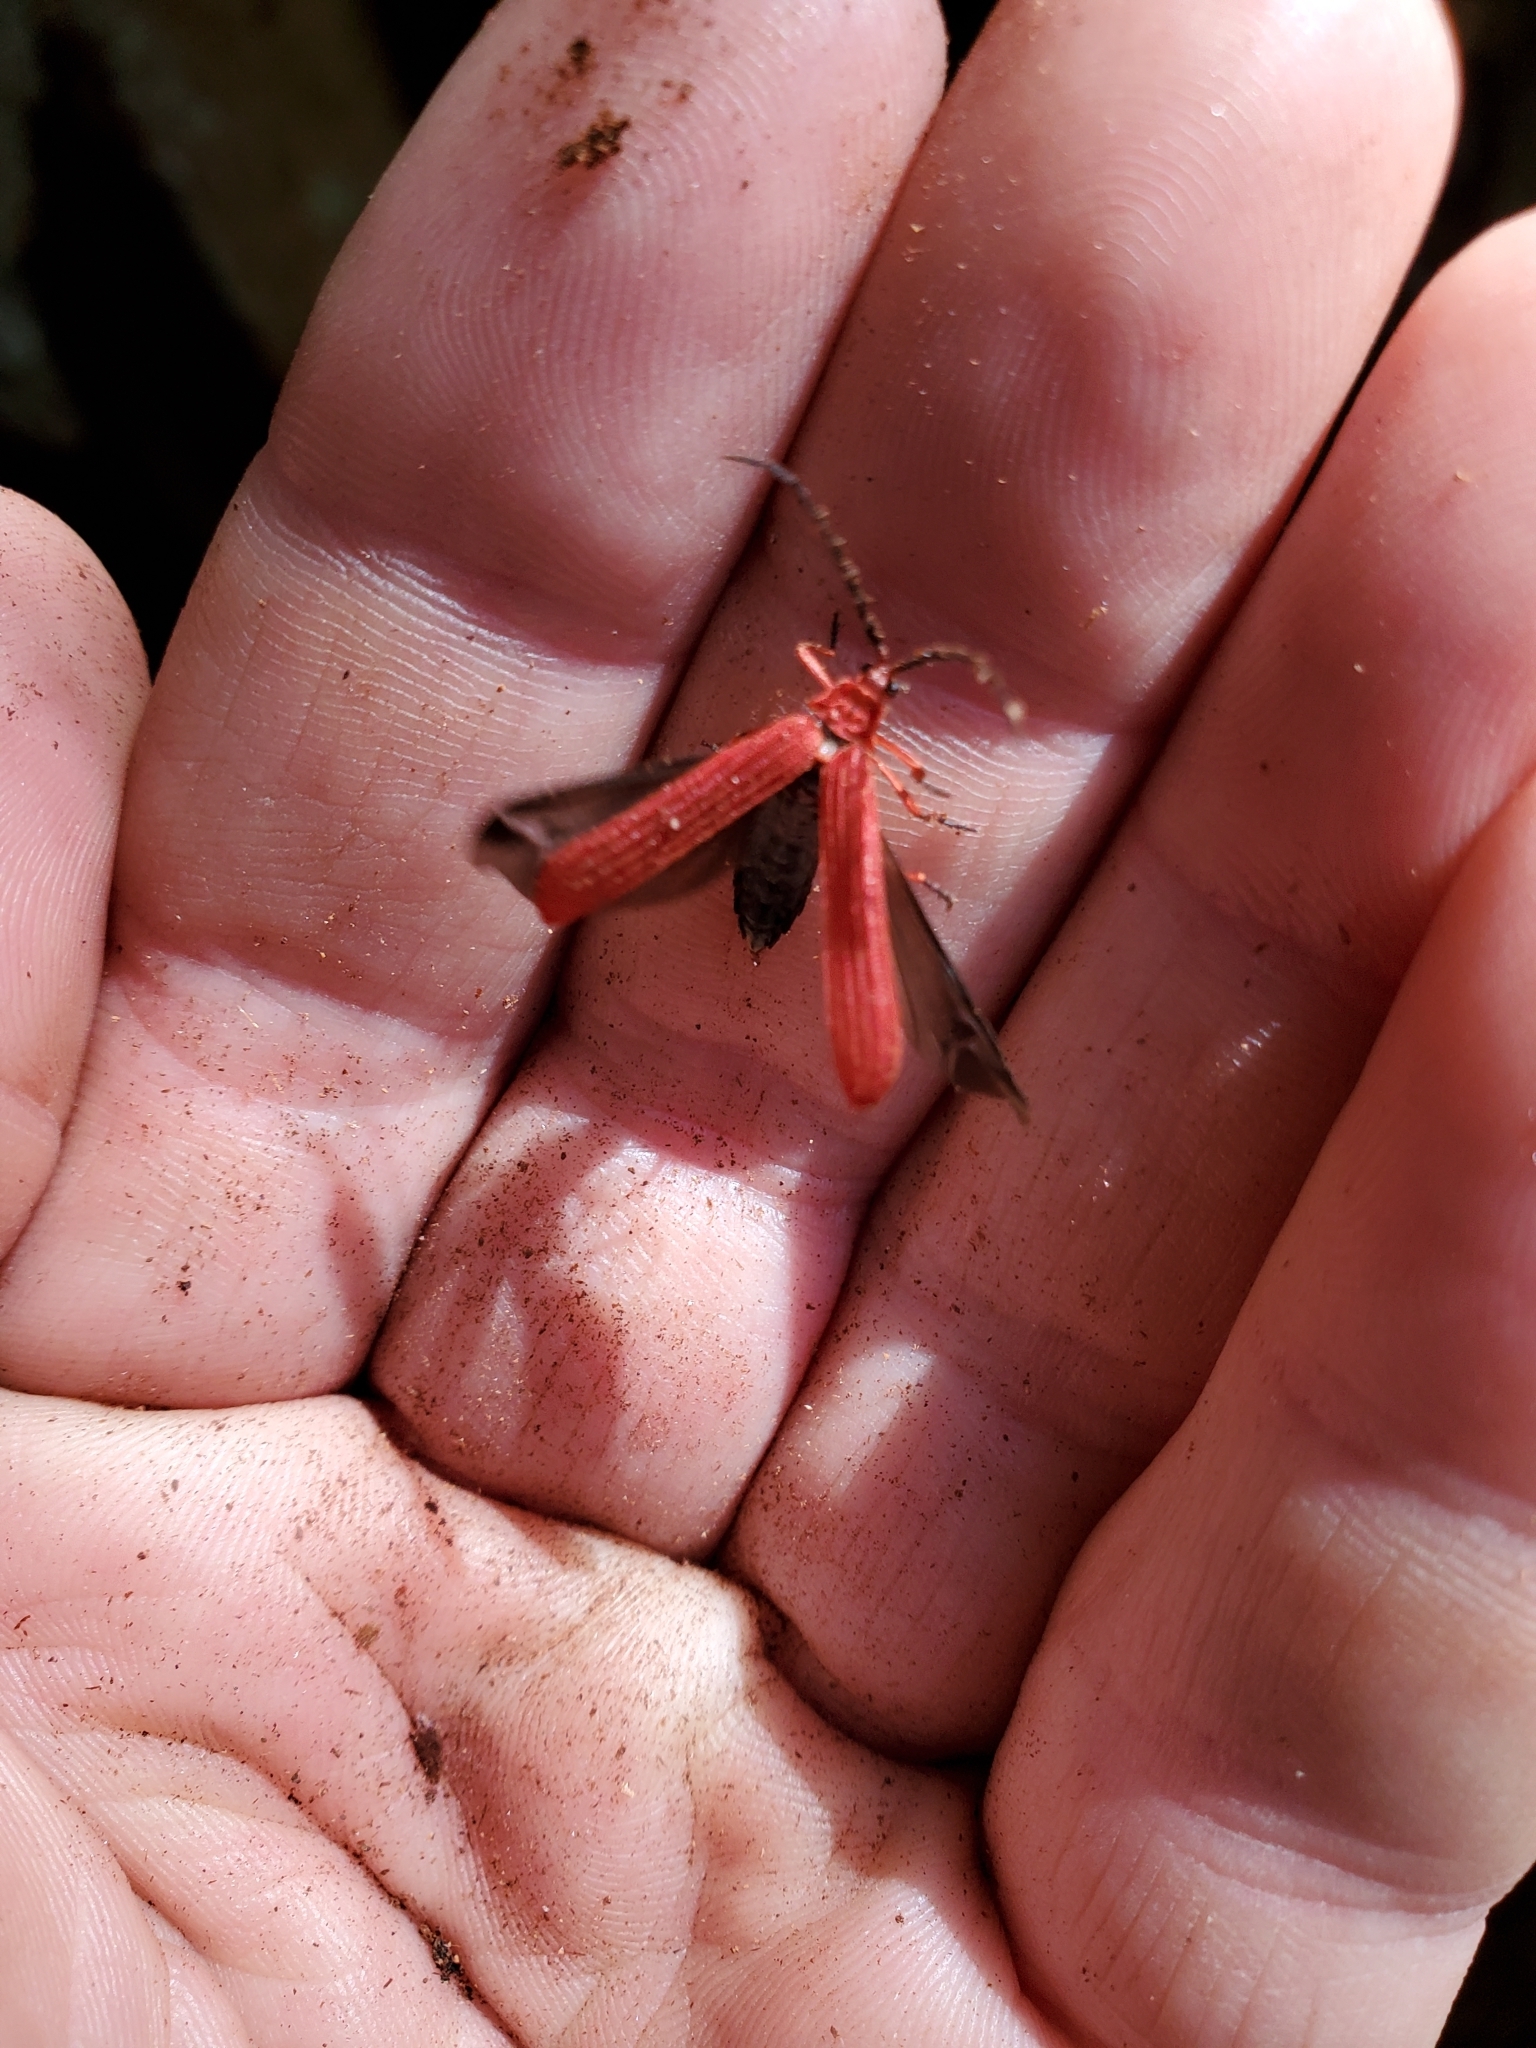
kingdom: Animalia
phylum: Arthropoda
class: Insecta
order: Coleoptera
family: Lycidae
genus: Punicealis
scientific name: Punicealis hamata
